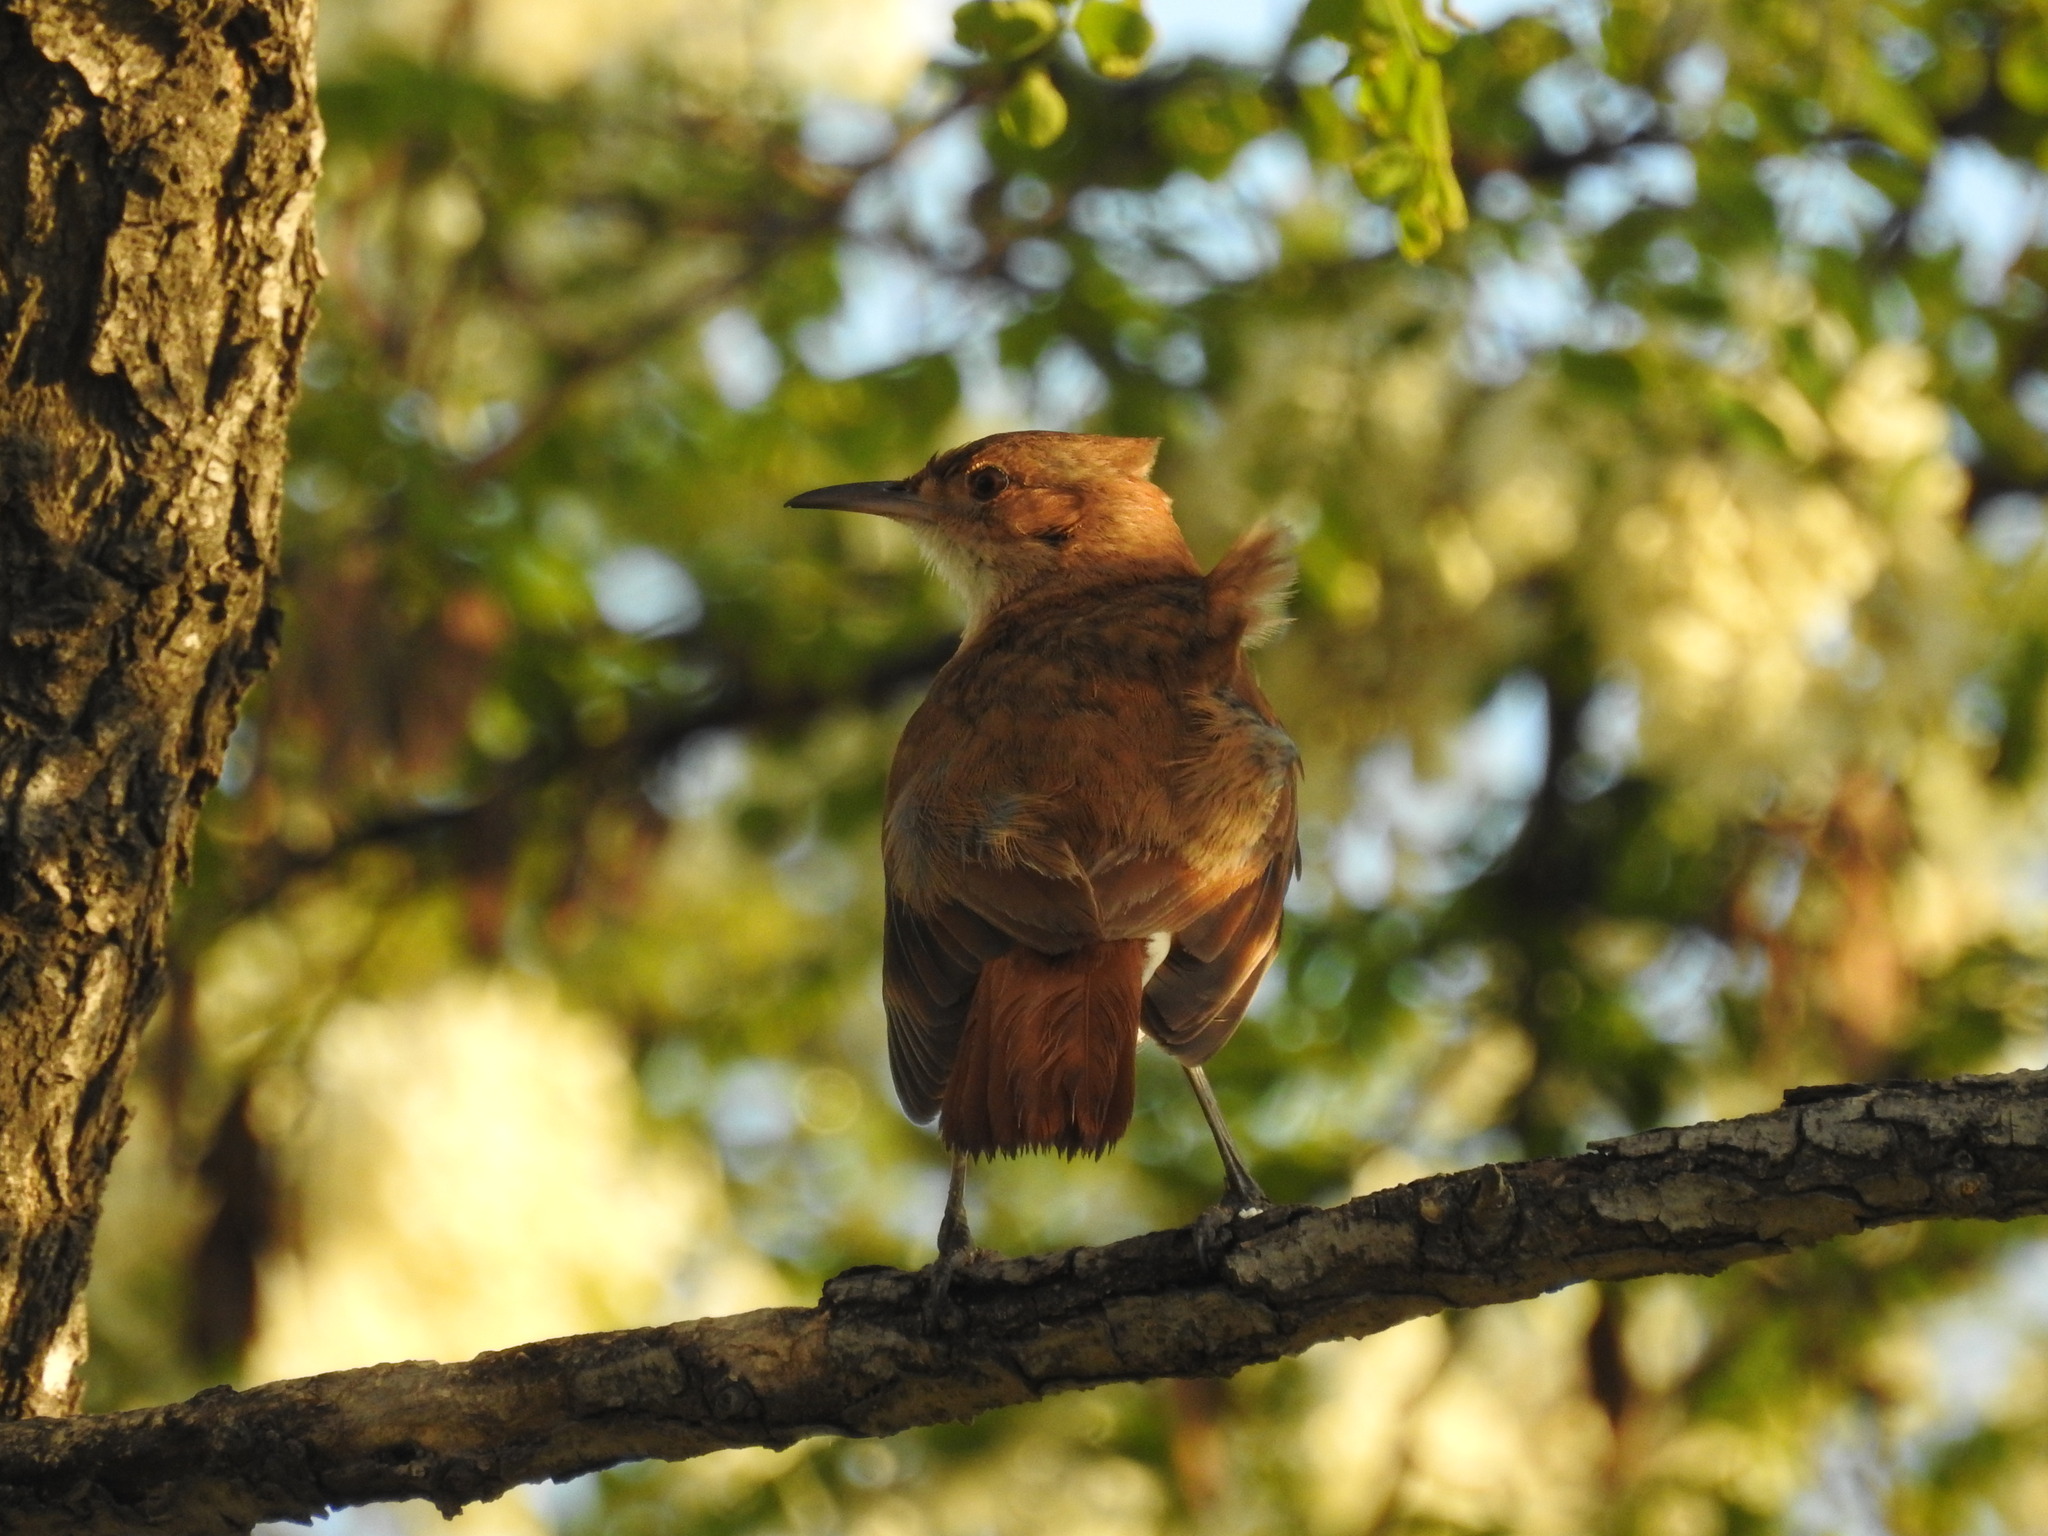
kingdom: Animalia
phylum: Chordata
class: Aves
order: Passeriformes
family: Furnariidae
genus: Furnarius
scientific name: Furnarius rufus
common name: Rufous hornero
